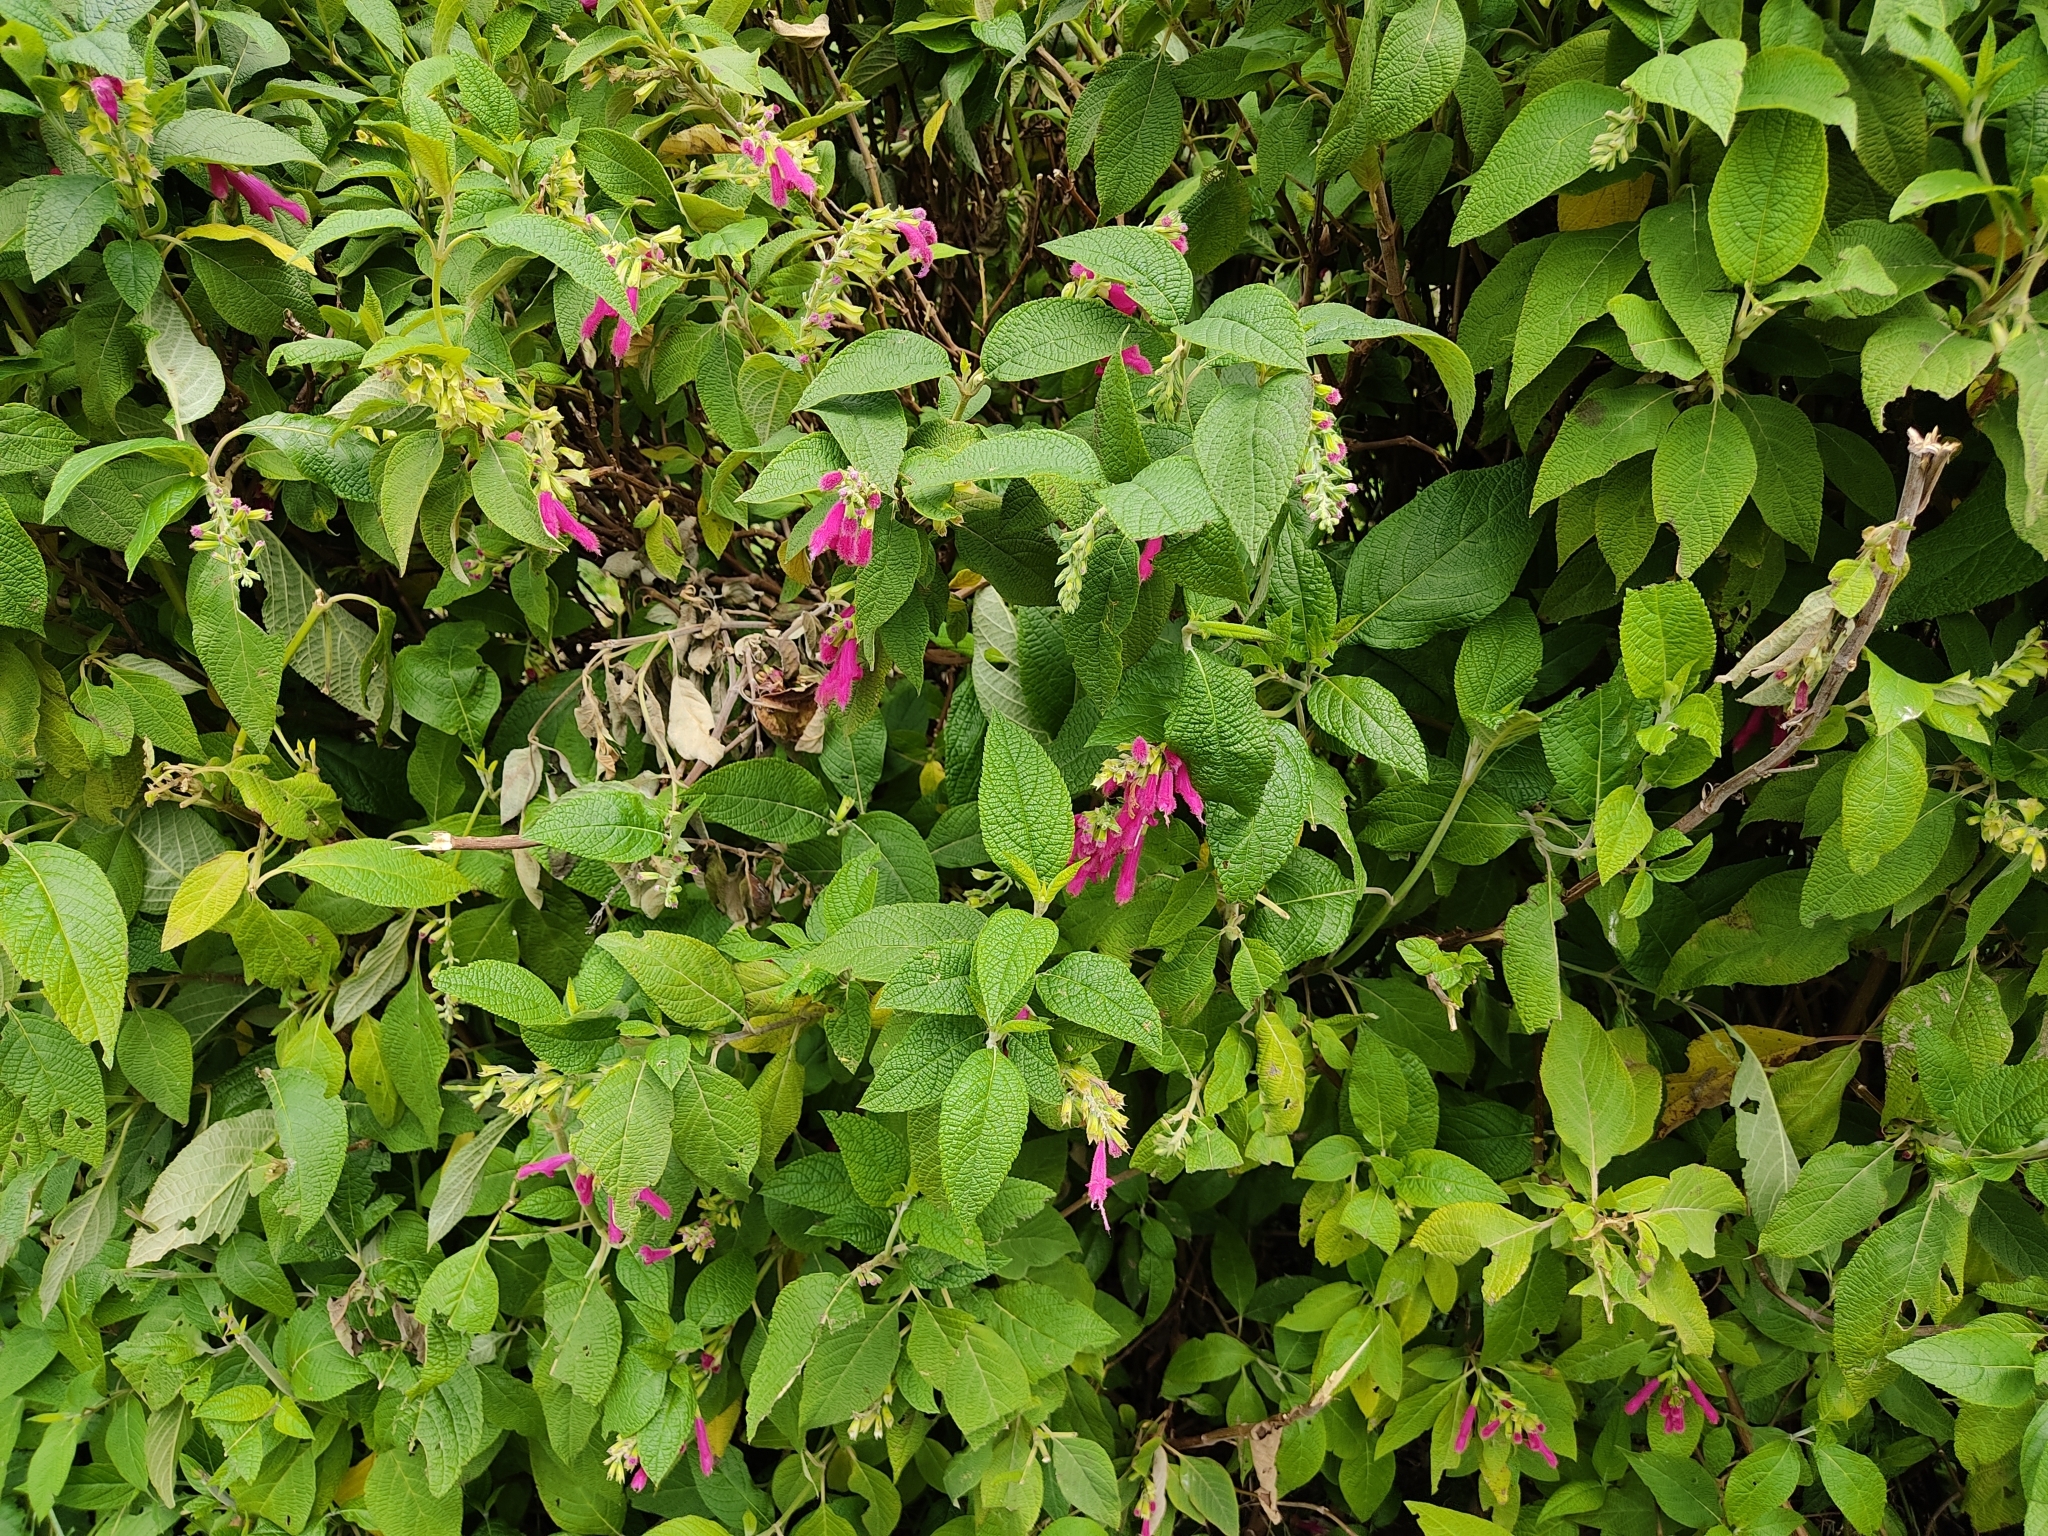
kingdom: Plantae
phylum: Tracheophyta
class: Magnoliopsida
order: Lamiales
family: Lamiaceae
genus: Salvia
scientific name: Salvia tortuosa
